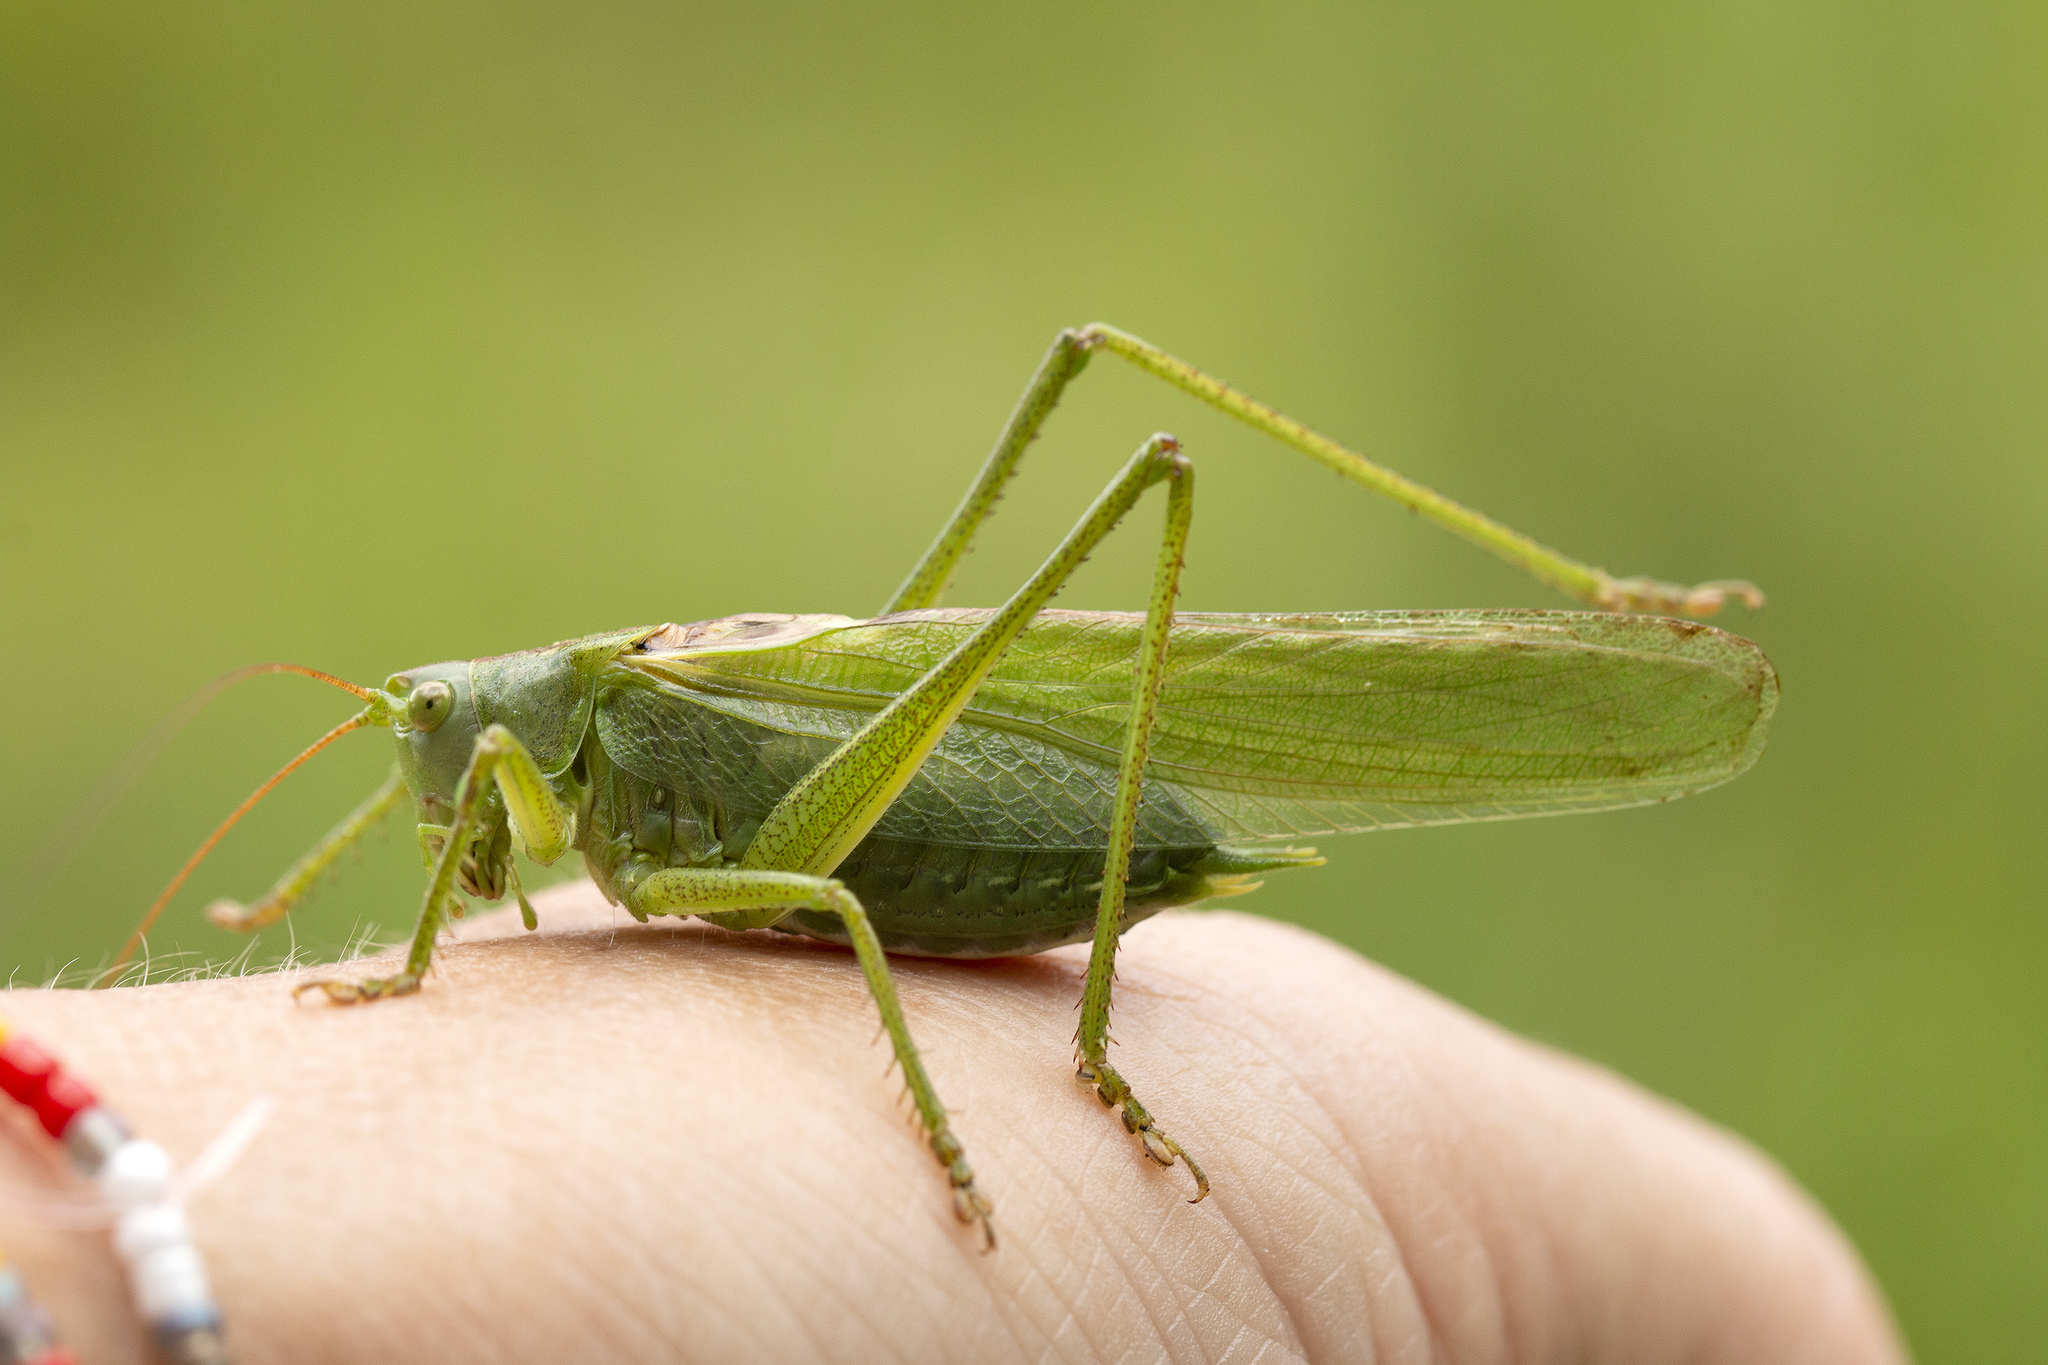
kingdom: Animalia
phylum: Arthropoda
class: Insecta
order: Orthoptera
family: Tettigoniidae
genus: Tettigonia
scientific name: Tettigonia viridissima
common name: Great green bush-cricket
